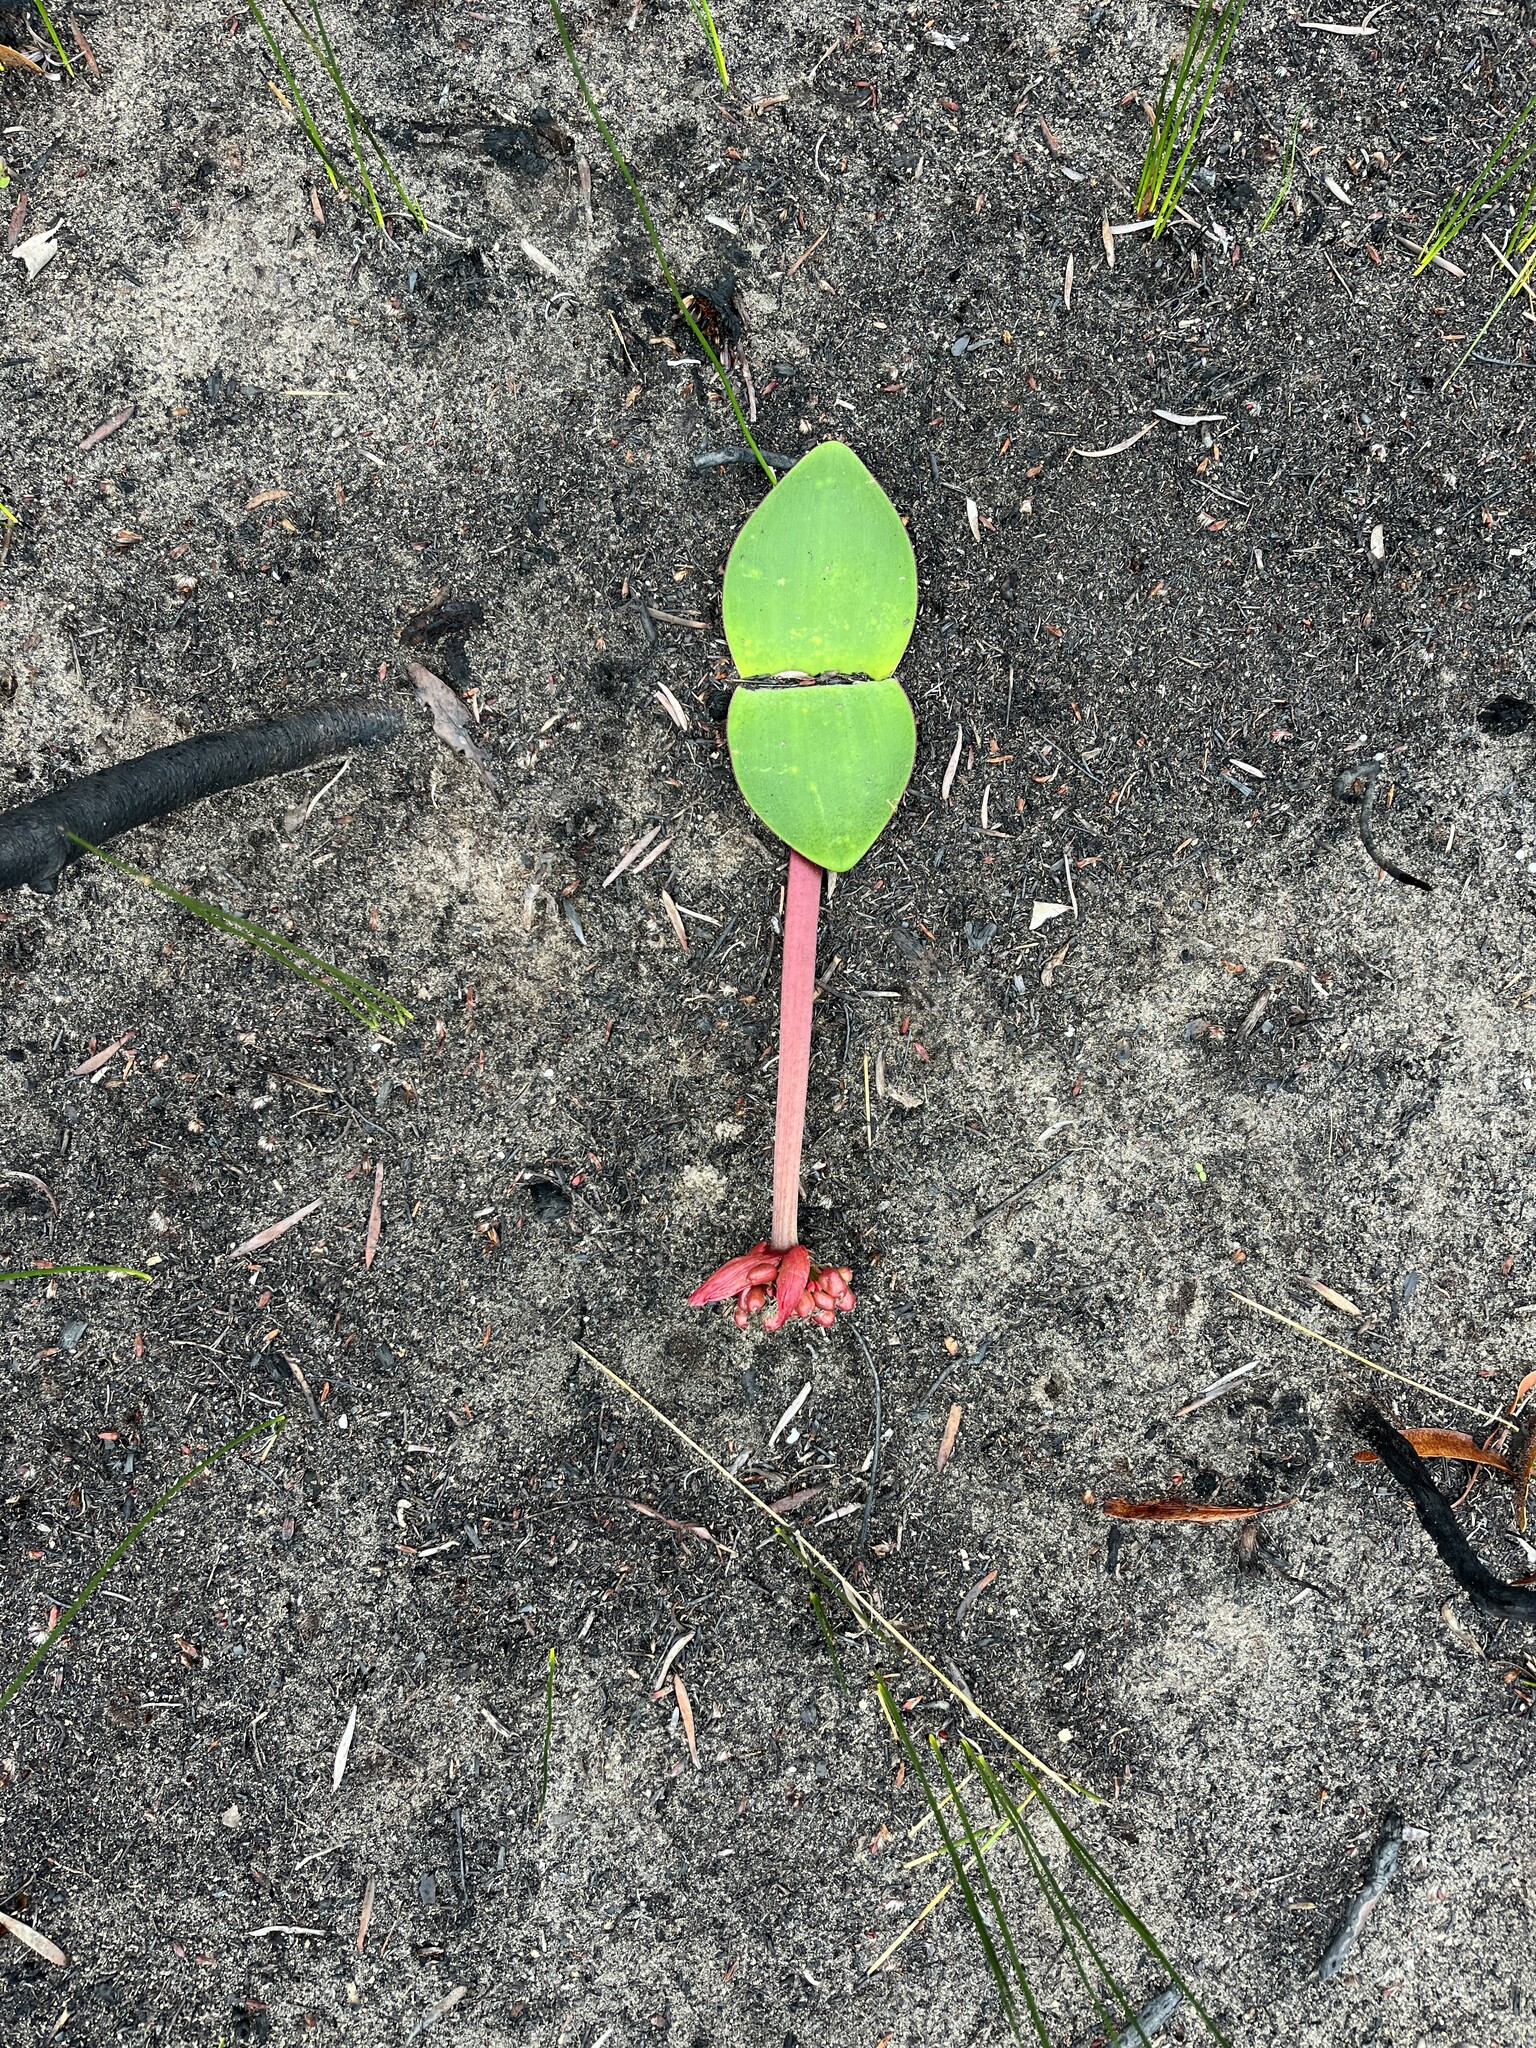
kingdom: Plantae
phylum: Tracheophyta
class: Liliopsida
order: Asparagales
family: Amaryllidaceae
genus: Haemanthus
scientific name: Haemanthus sanguineus
